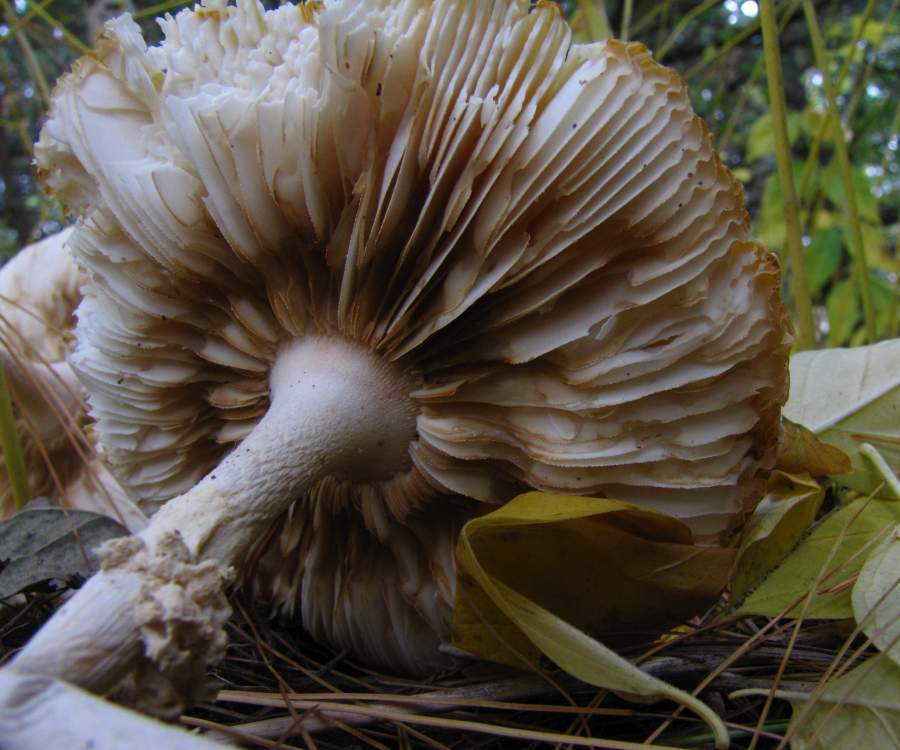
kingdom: Fungi
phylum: Basidiomycota
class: Agaricomycetes
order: Agaricales
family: Amanitaceae
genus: Amanita
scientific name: Amanita muscaria
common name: Fly agaric
